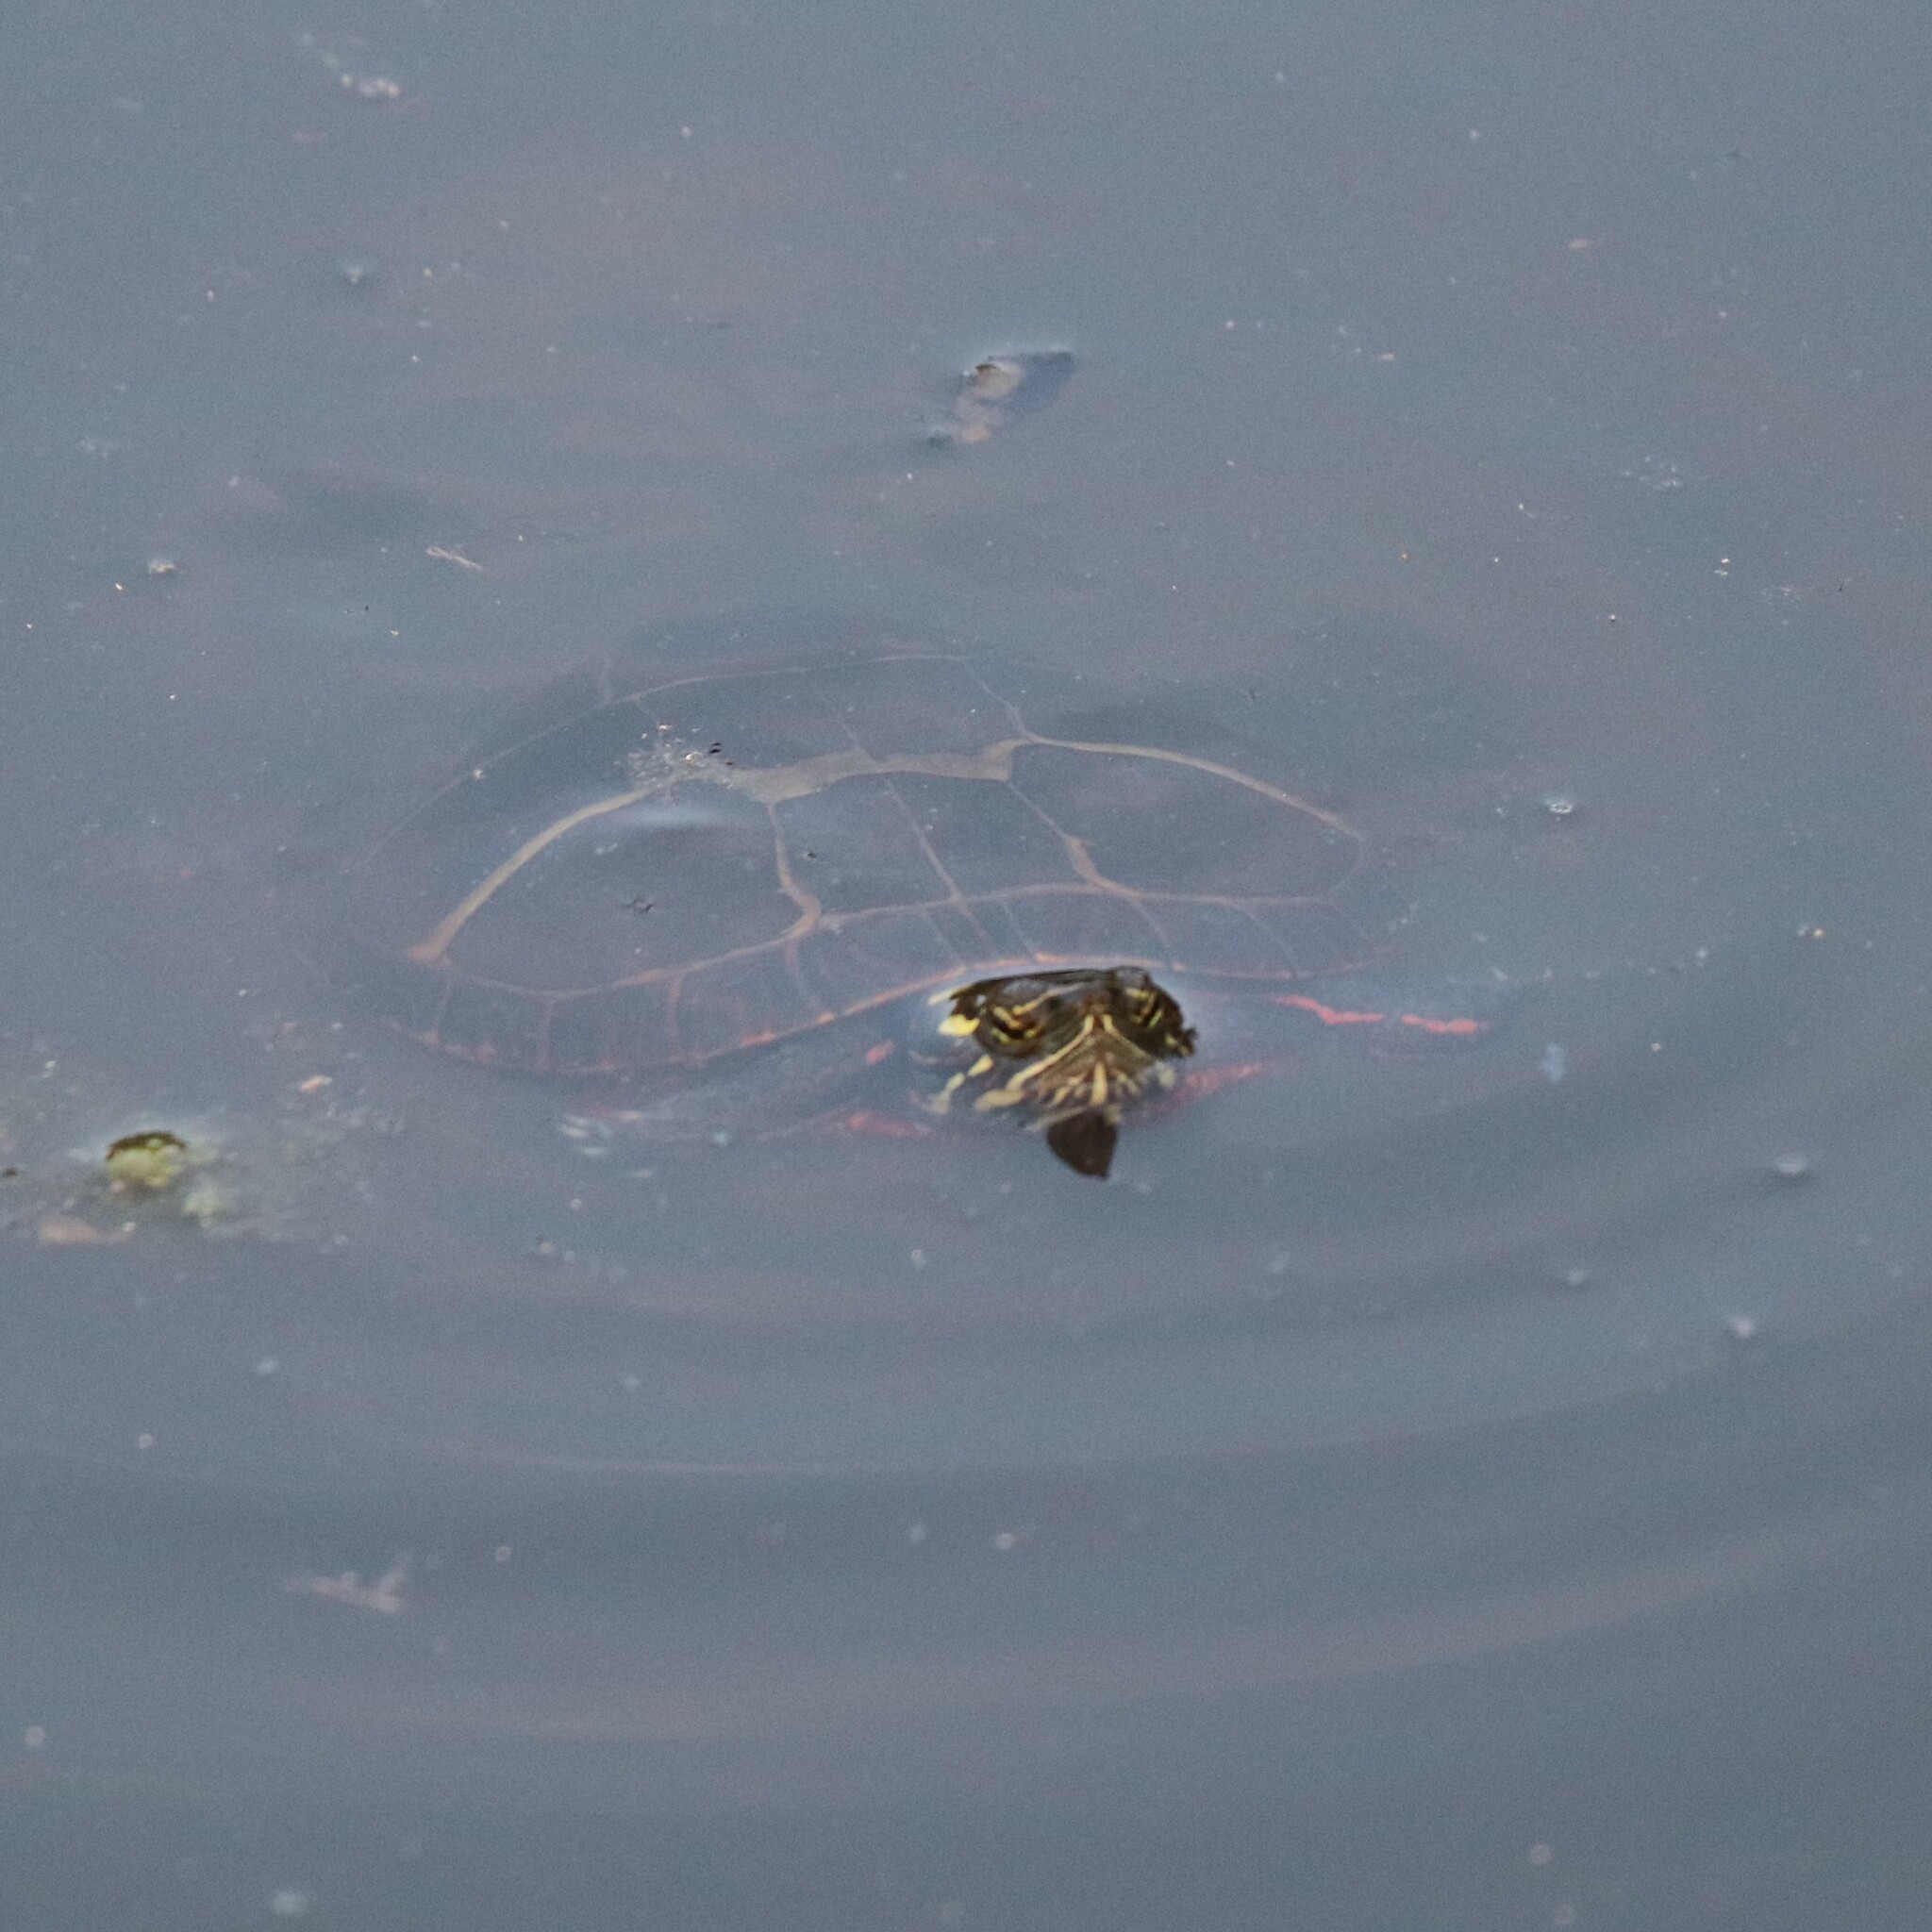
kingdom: Animalia
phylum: Chordata
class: Testudines
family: Emydidae
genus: Chrysemys
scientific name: Chrysemys picta
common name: Painted turtle
